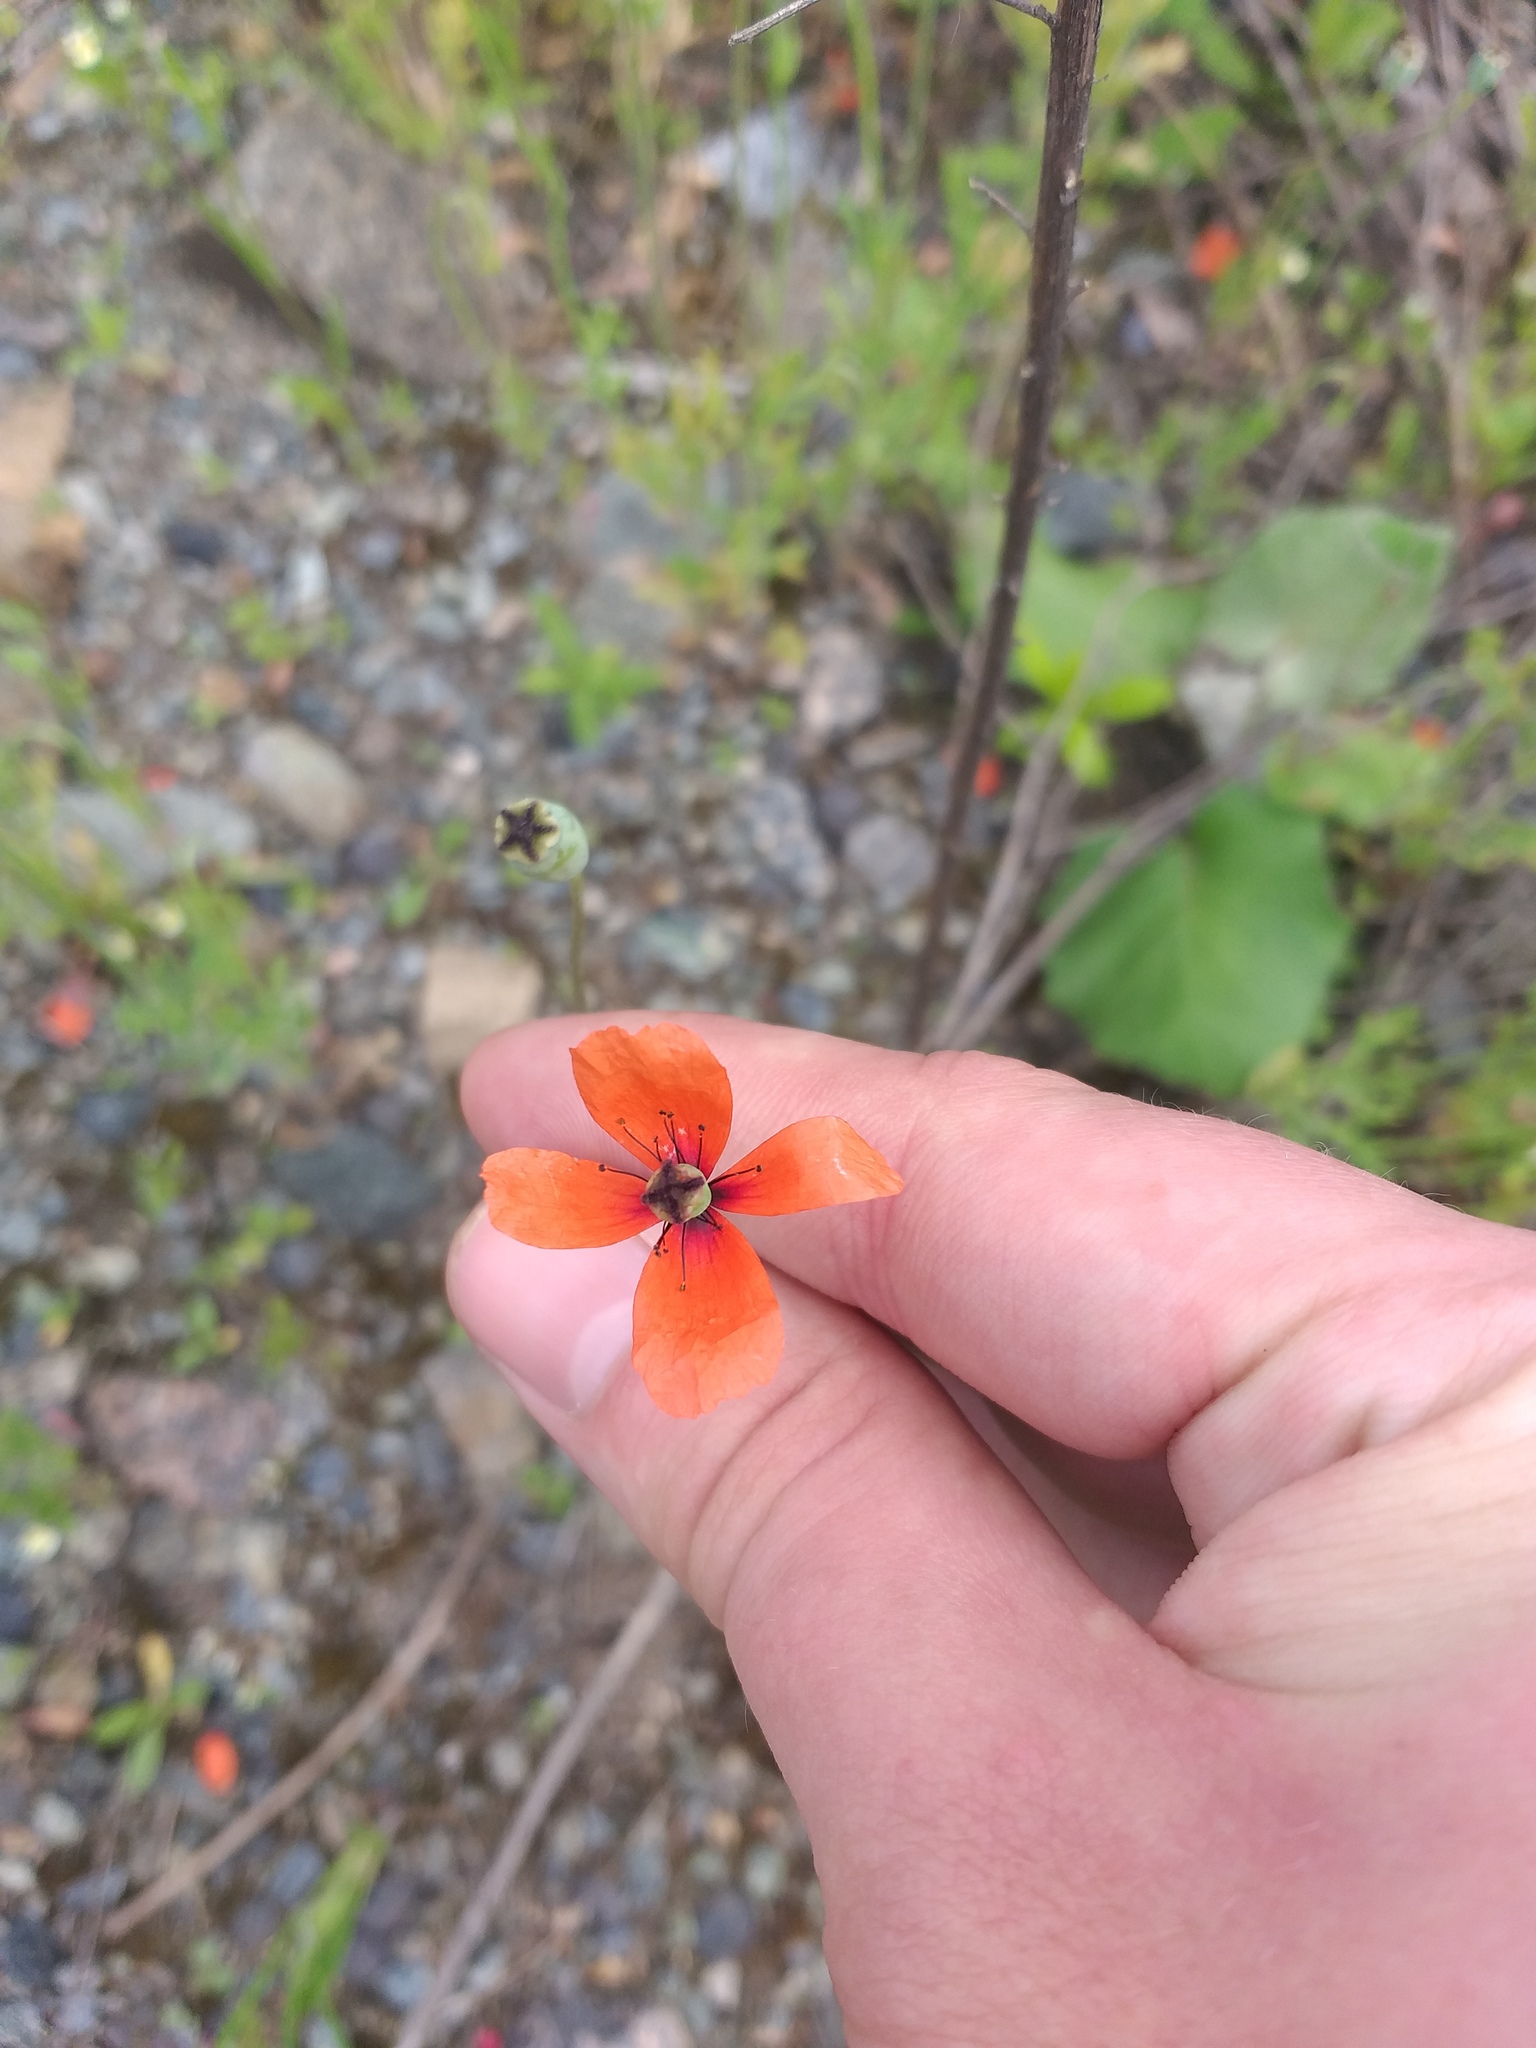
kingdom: Plantae
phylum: Tracheophyta
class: Magnoliopsida
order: Ranunculales
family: Papaveraceae
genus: Papaver
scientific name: Papaver dubium
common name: Long-headed poppy
